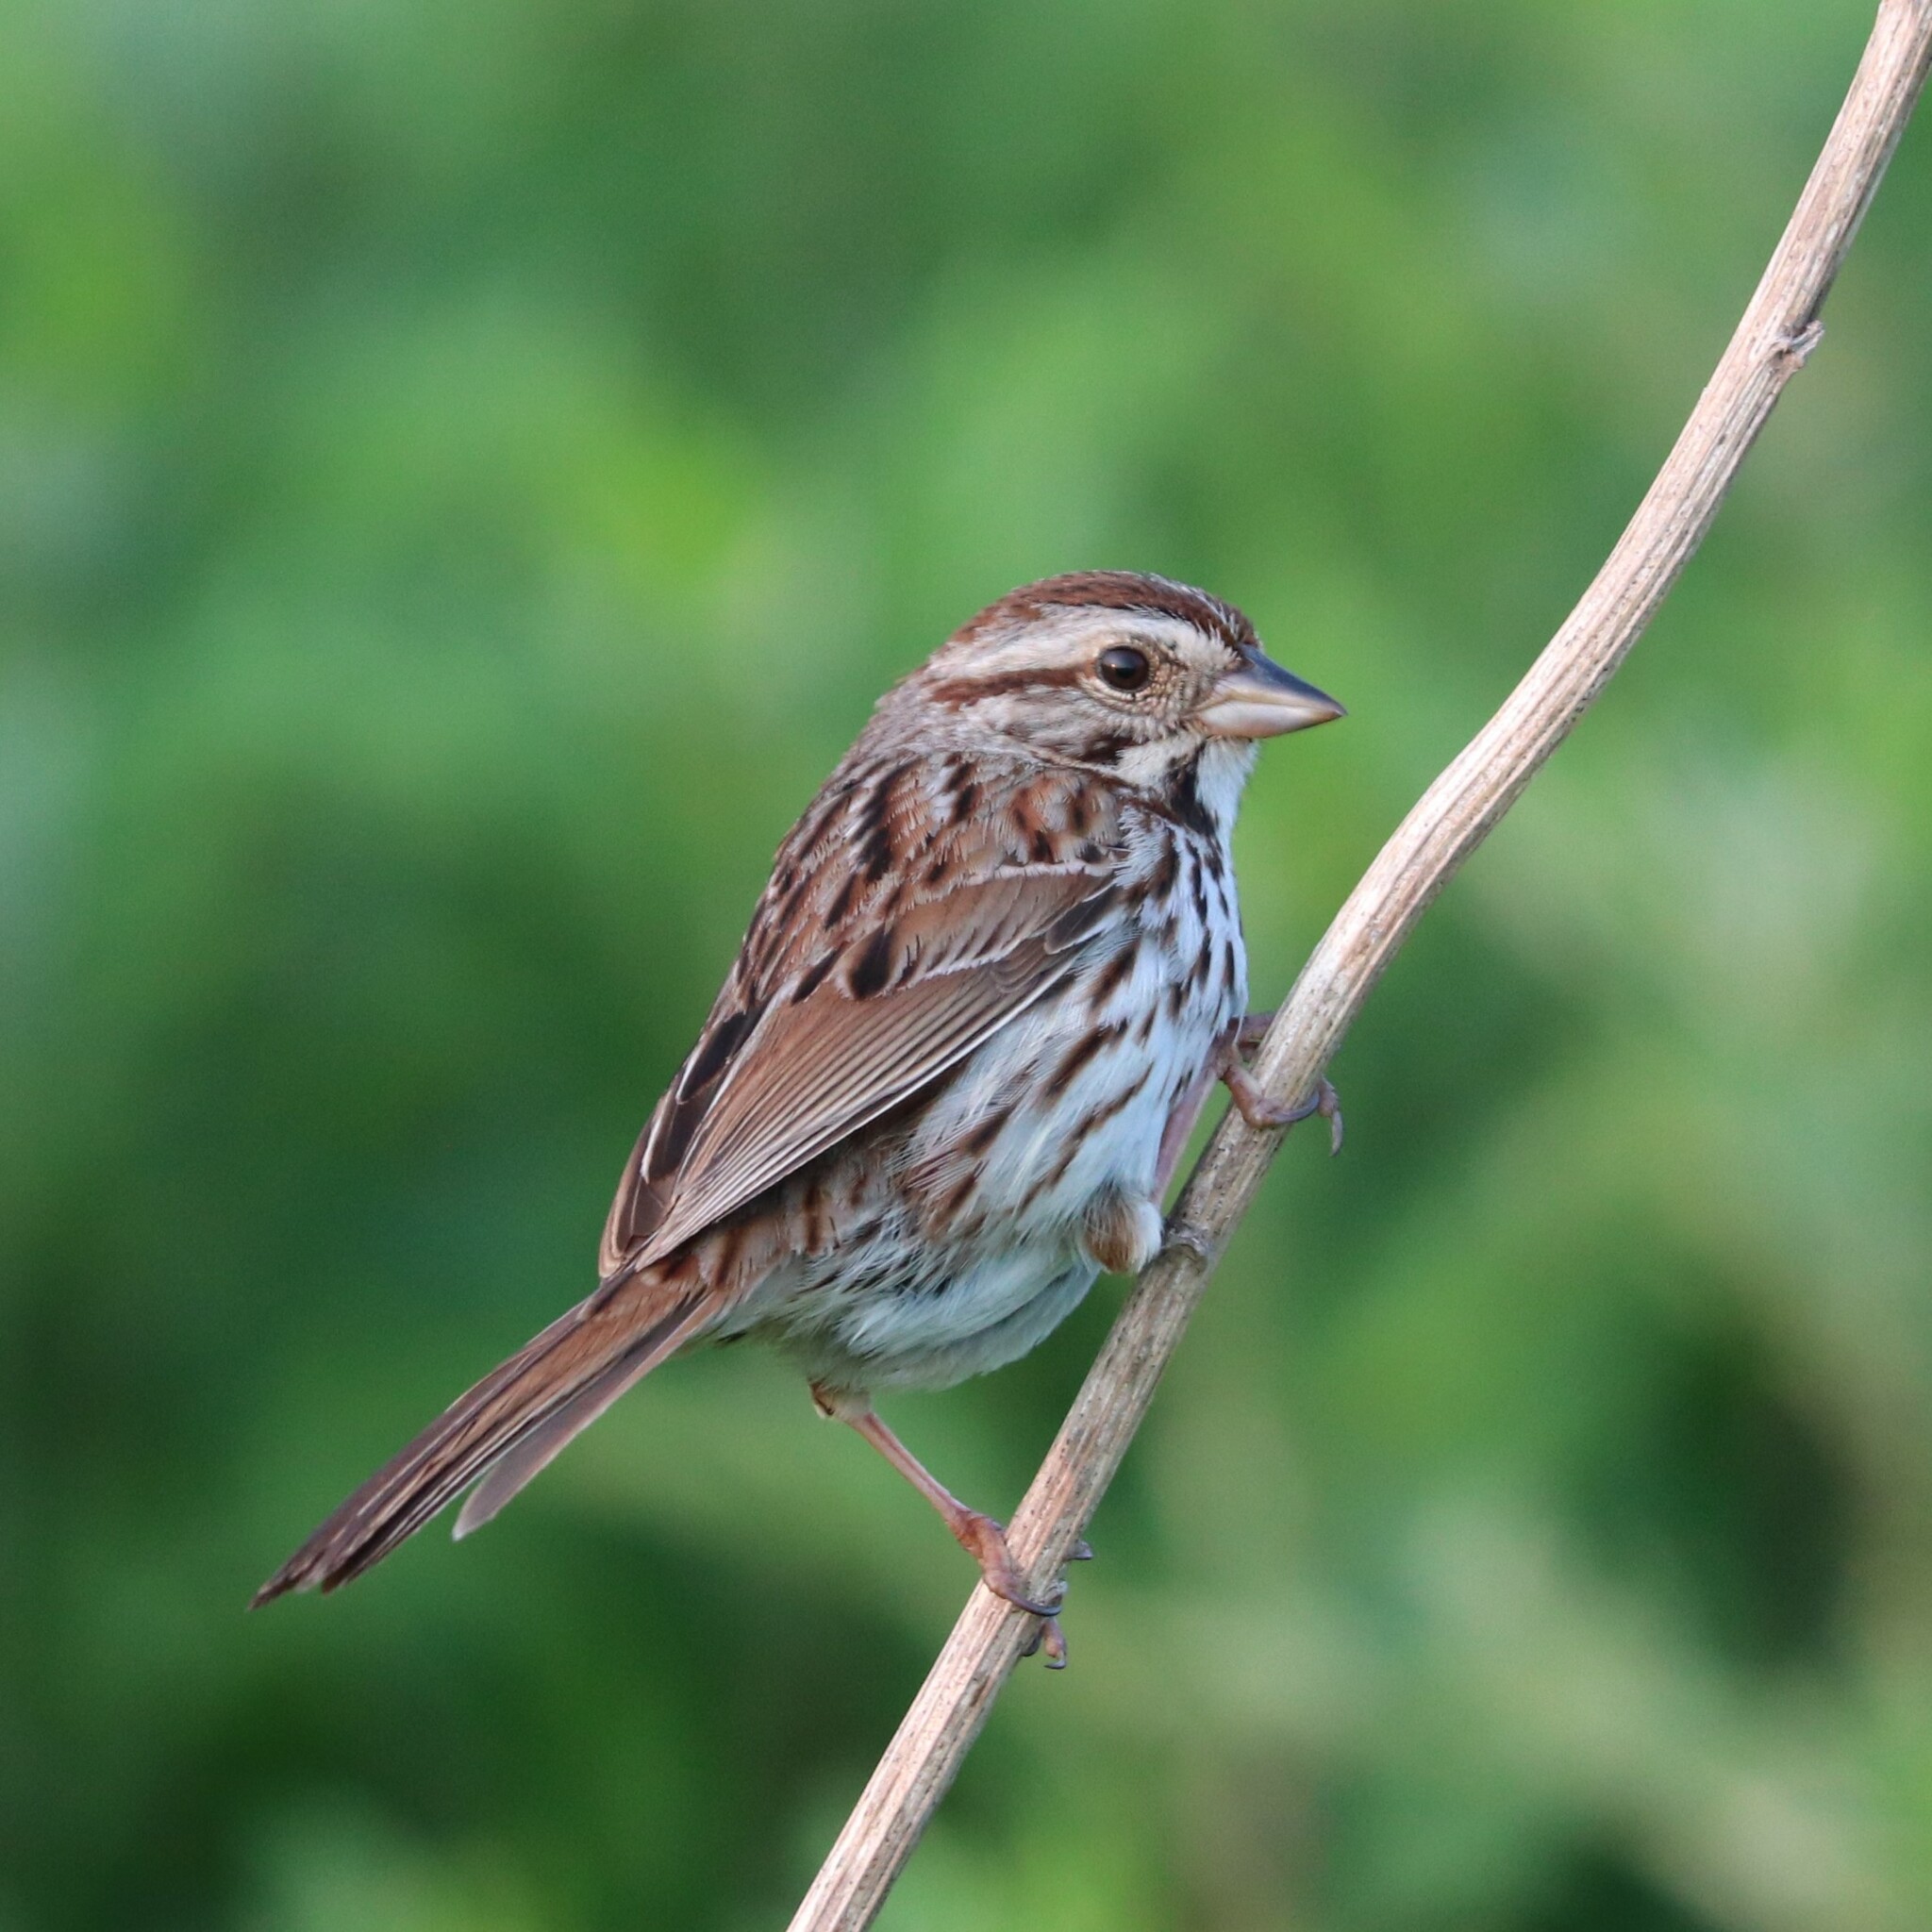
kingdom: Animalia
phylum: Chordata
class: Aves
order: Passeriformes
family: Passerellidae
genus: Melospiza
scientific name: Melospiza melodia
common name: Song sparrow
